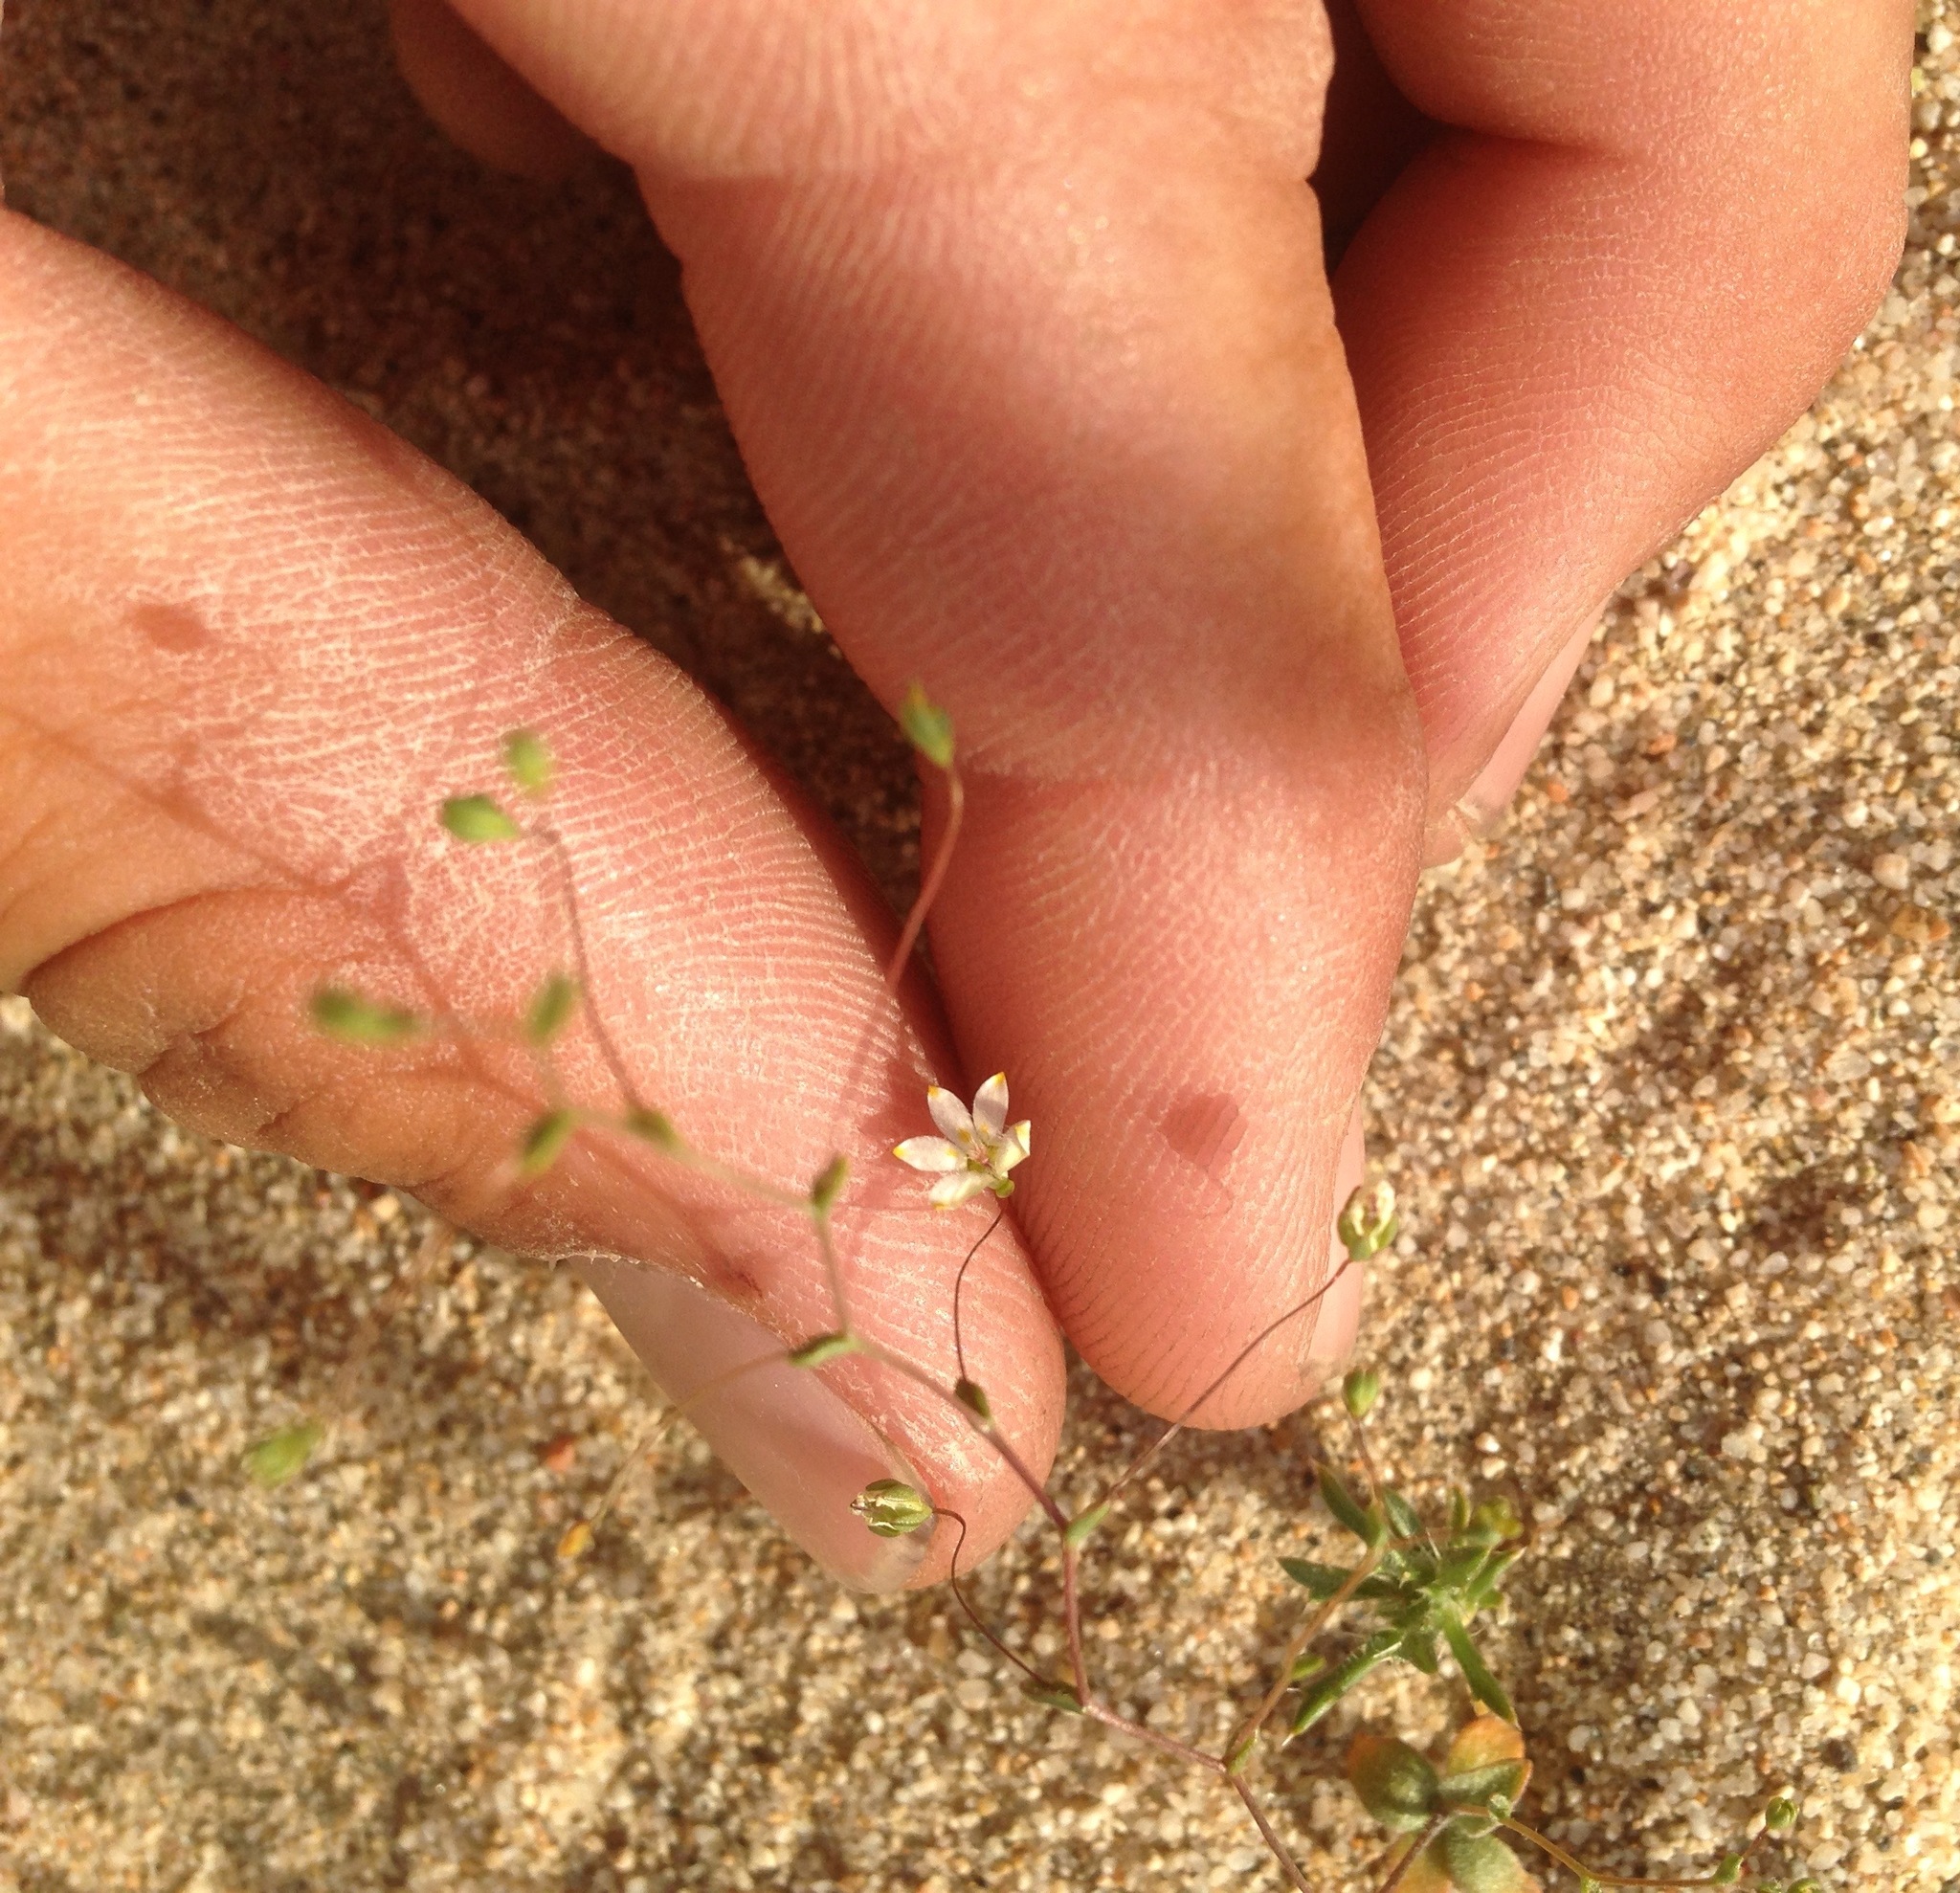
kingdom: Plantae
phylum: Tracheophyta
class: Magnoliopsida
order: Asterales
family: Campanulaceae
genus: Nemacladus
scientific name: Nemacladus matsonii
